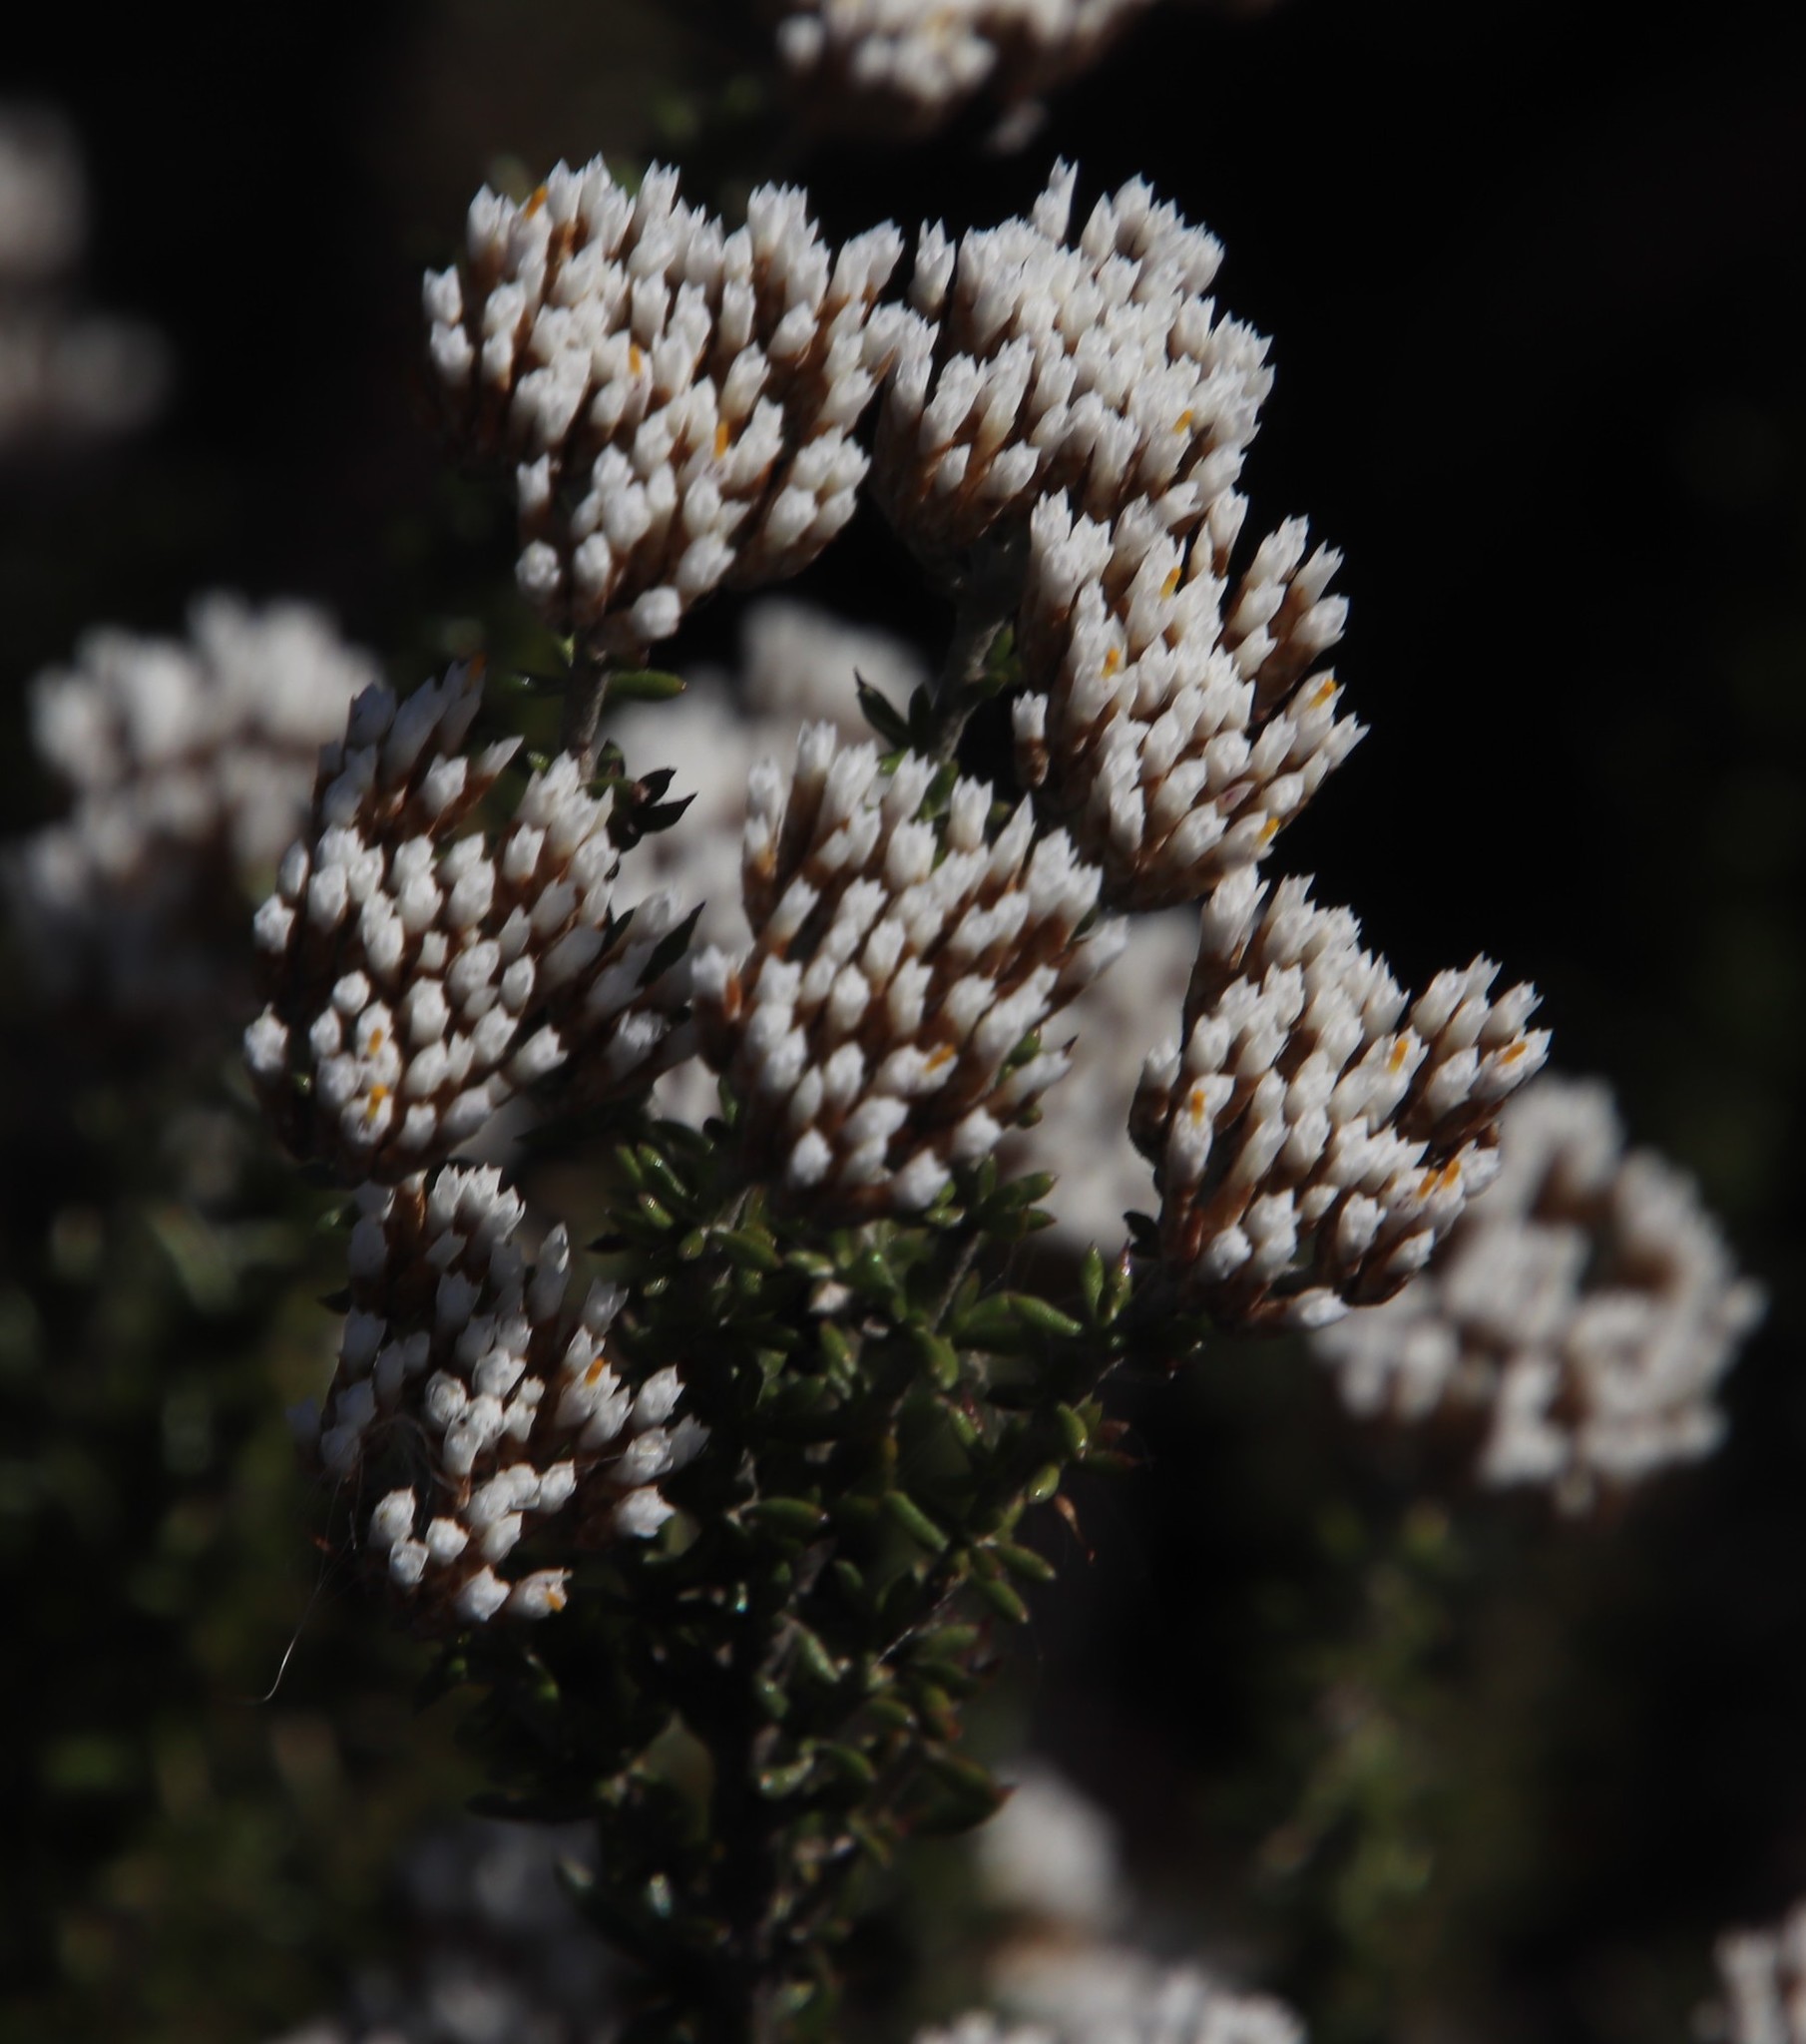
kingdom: Plantae
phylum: Tracheophyta
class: Magnoliopsida
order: Asterales
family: Asteraceae
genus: Metalasia
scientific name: Metalasia densa
